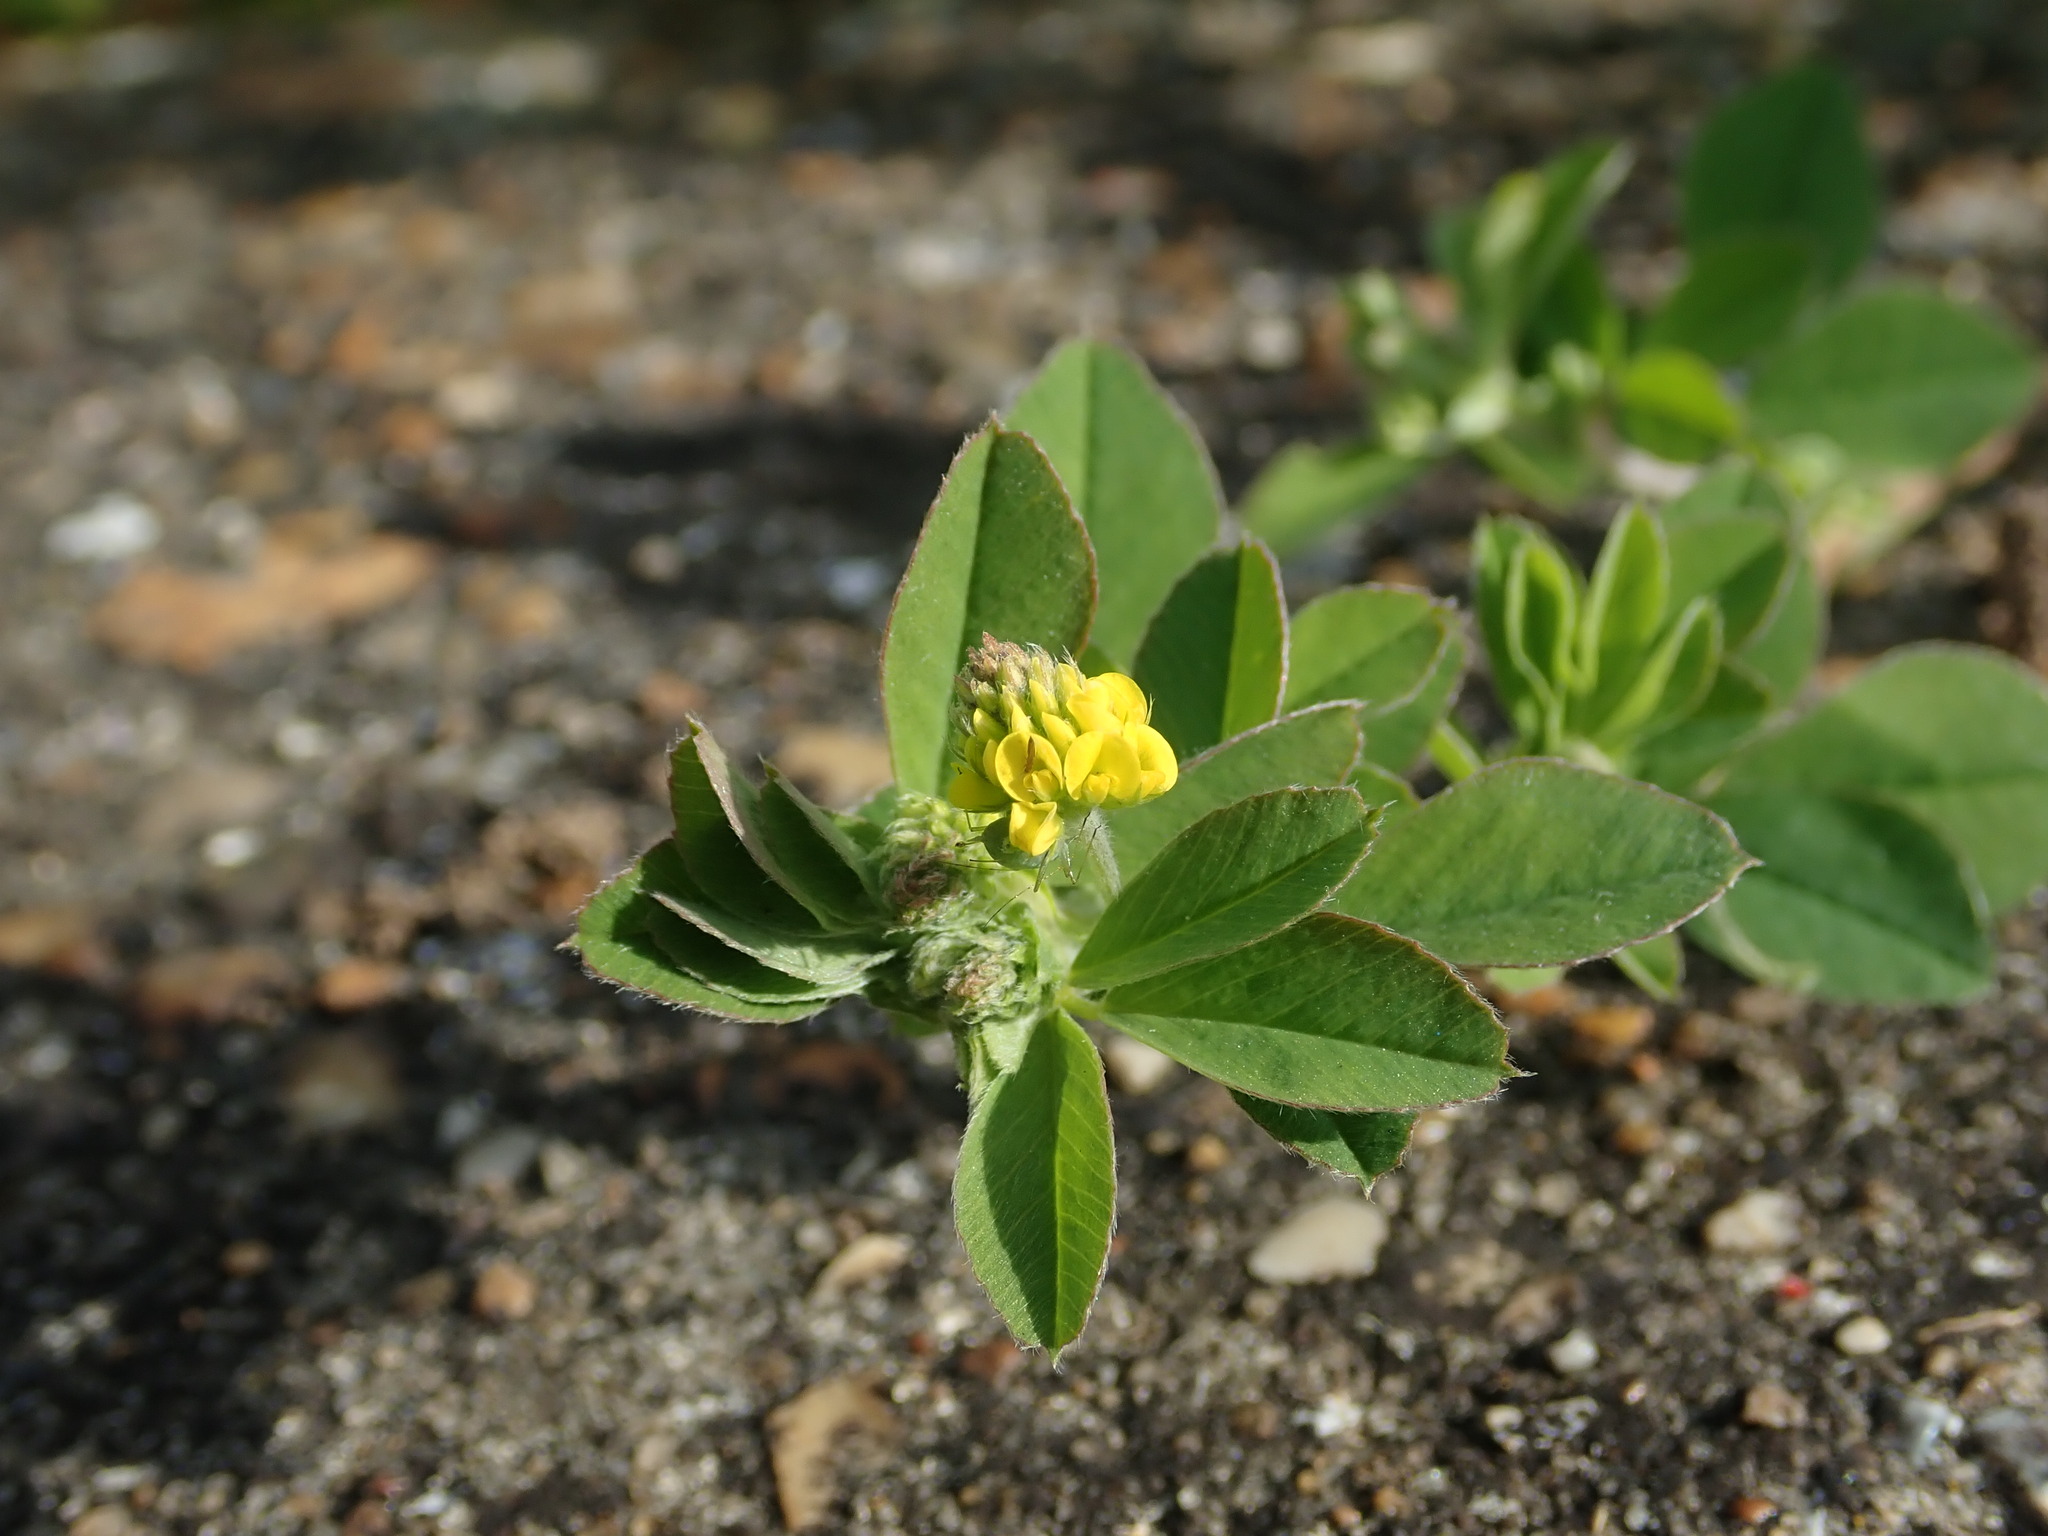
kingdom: Plantae
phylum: Tracheophyta
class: Magnoliopsida
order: Fabales
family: Fabaceae
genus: Medicago
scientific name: Medicago lupulina
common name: Black medick
